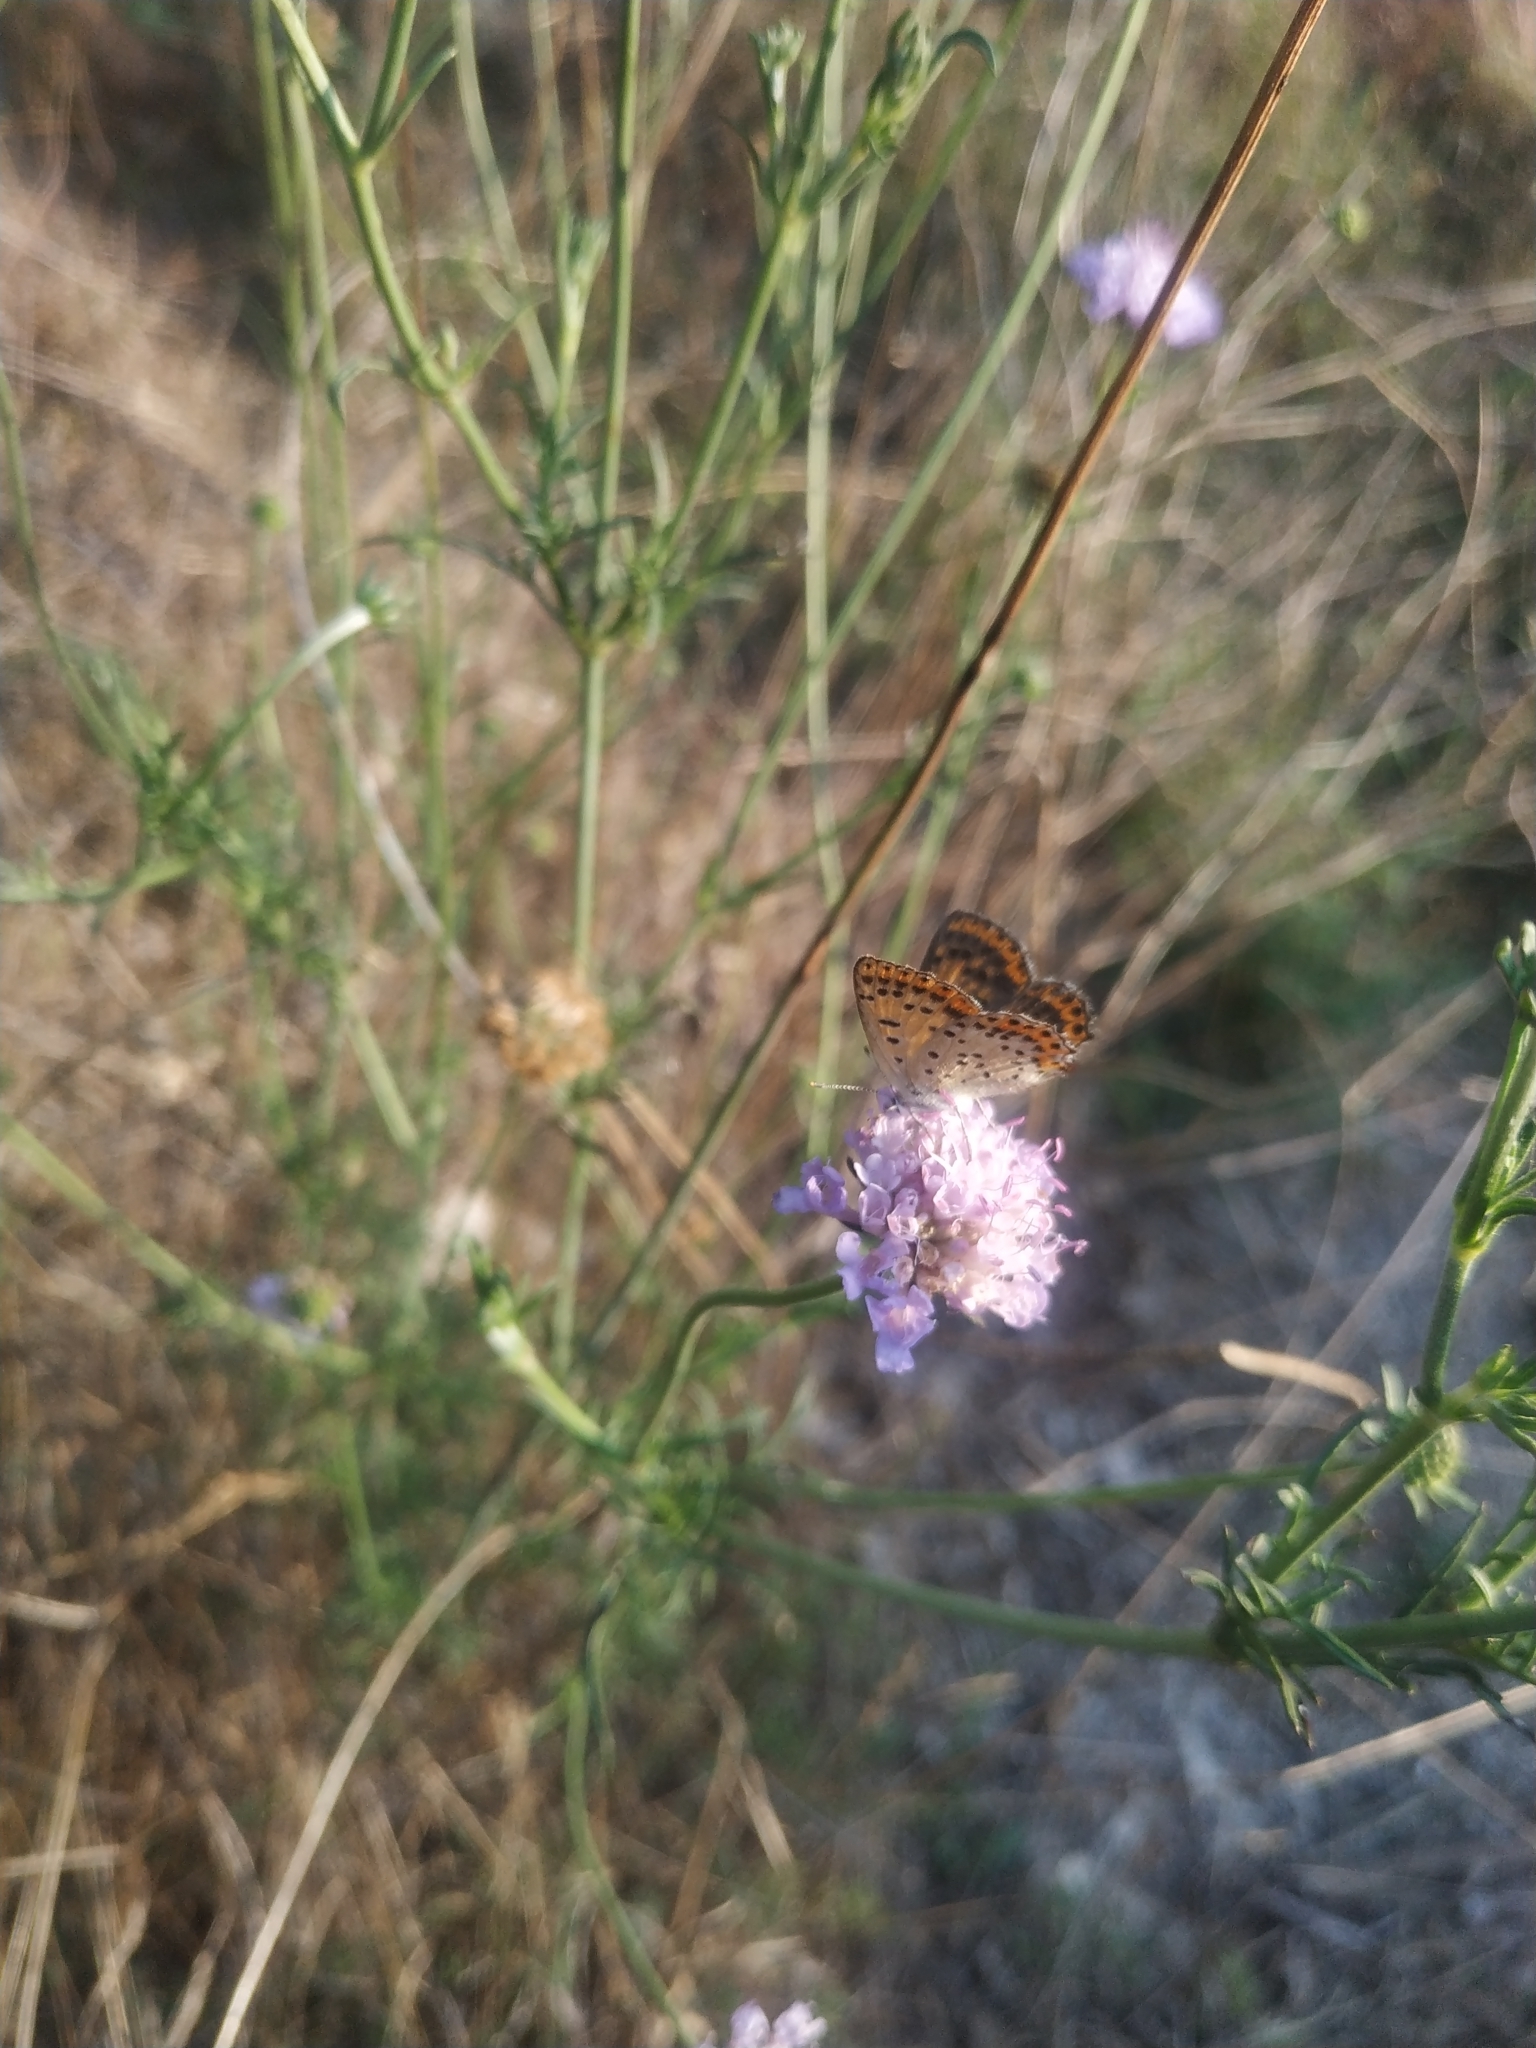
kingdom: Animalia
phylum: Arthropoda
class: Insecta
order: Lepidoptera
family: Lycaenidae
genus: Loweia
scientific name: Loweia tityrus
